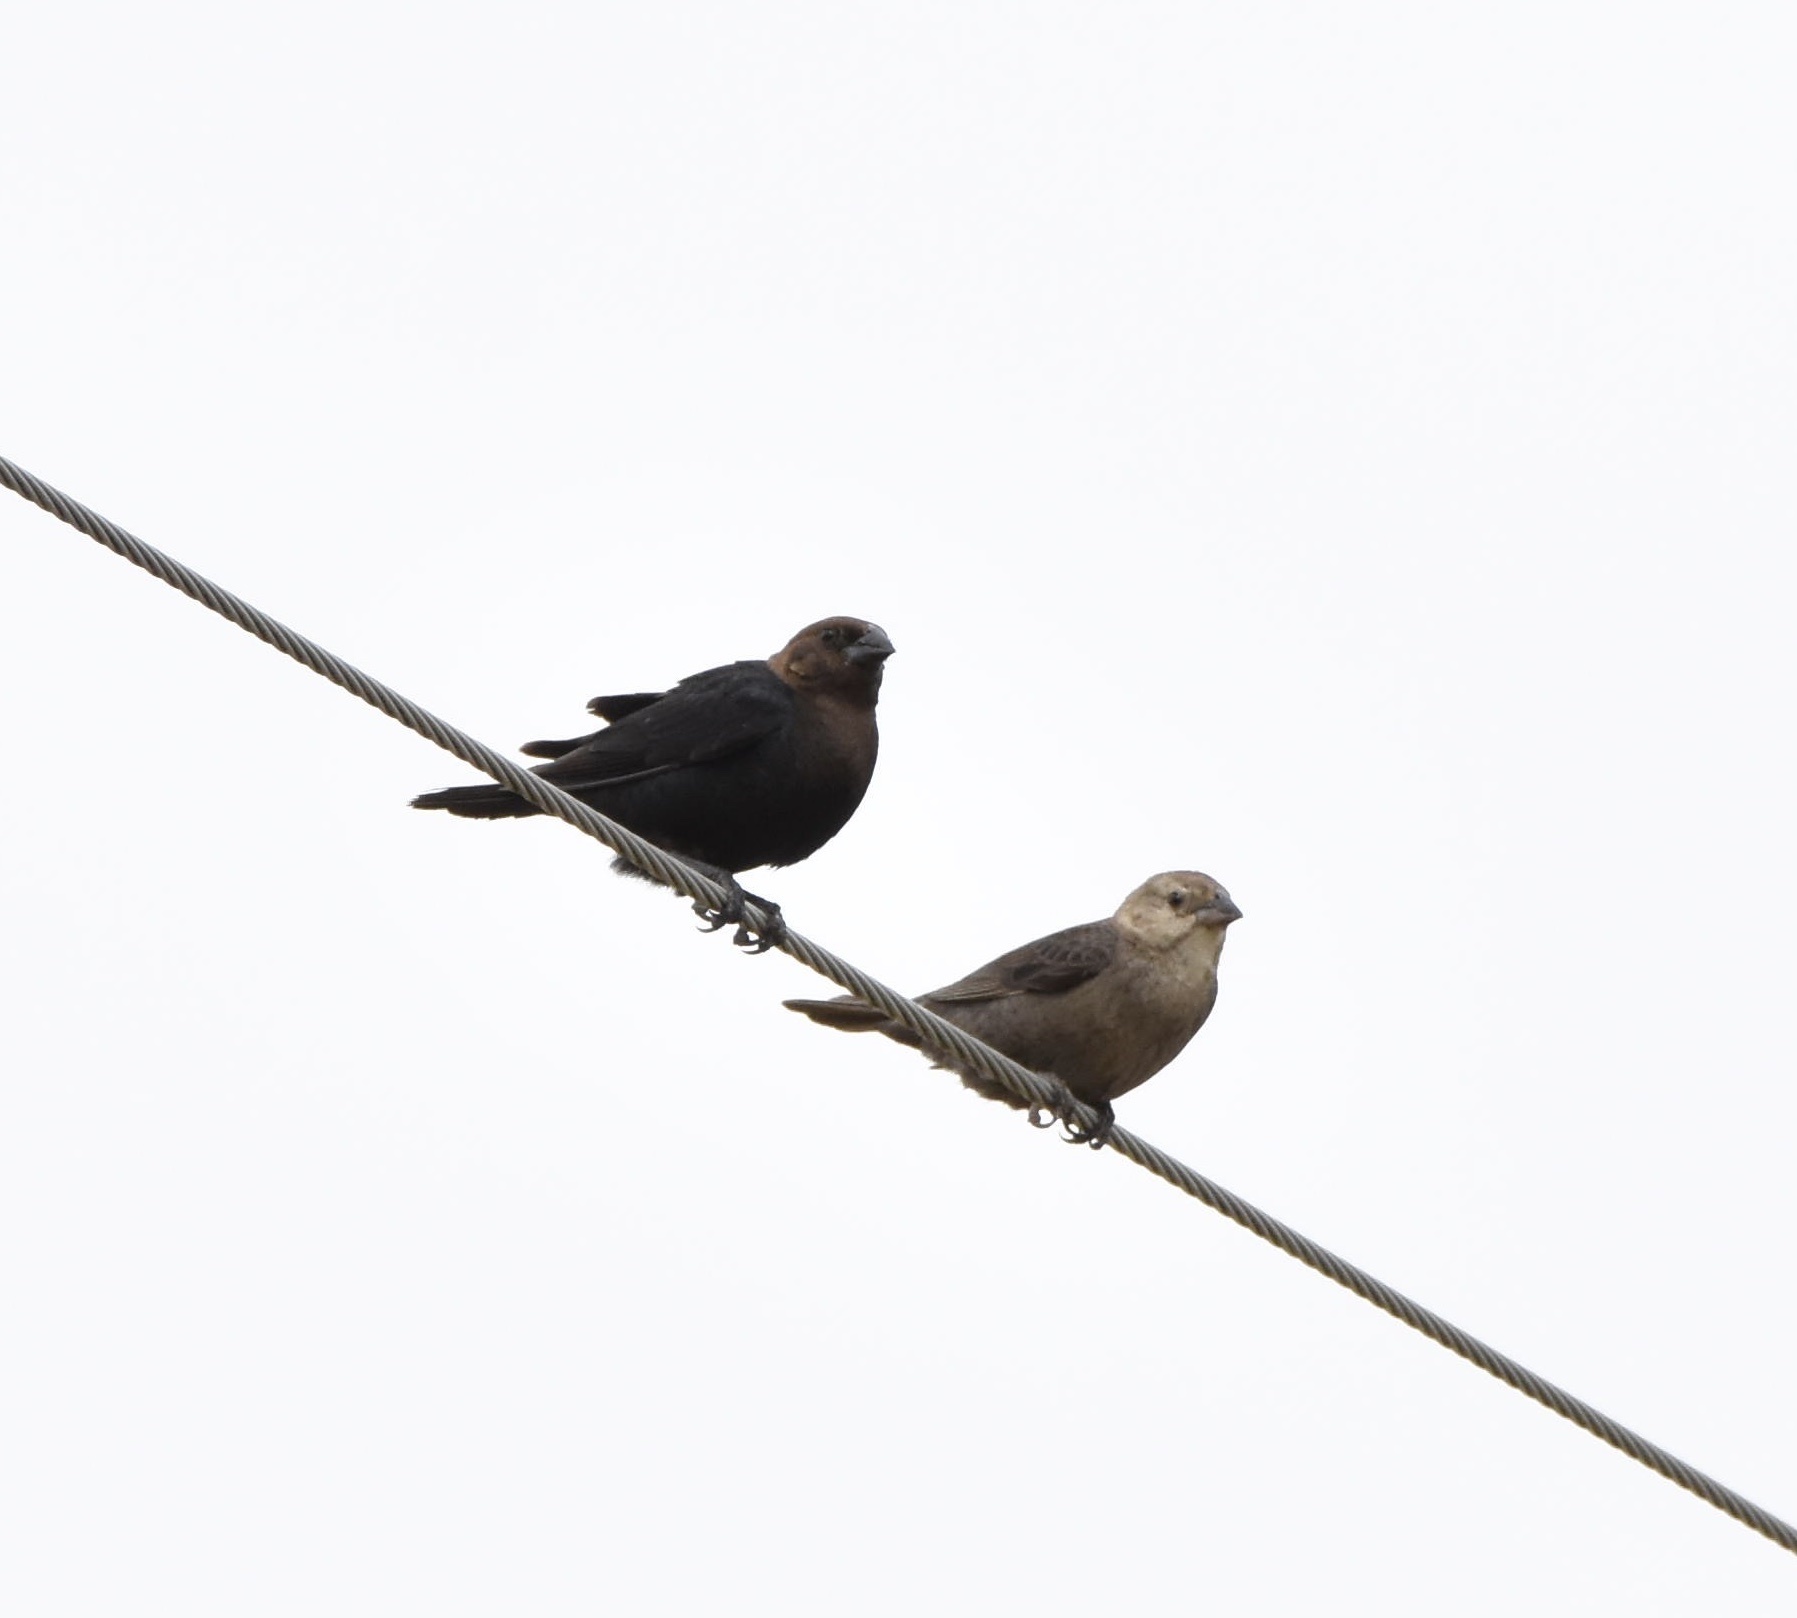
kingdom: Animalia
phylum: Chordata
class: Aves
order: Passeriformes
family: Icteridae
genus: Molothrus
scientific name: Molothrus ater
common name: Brown-headed cowbird
